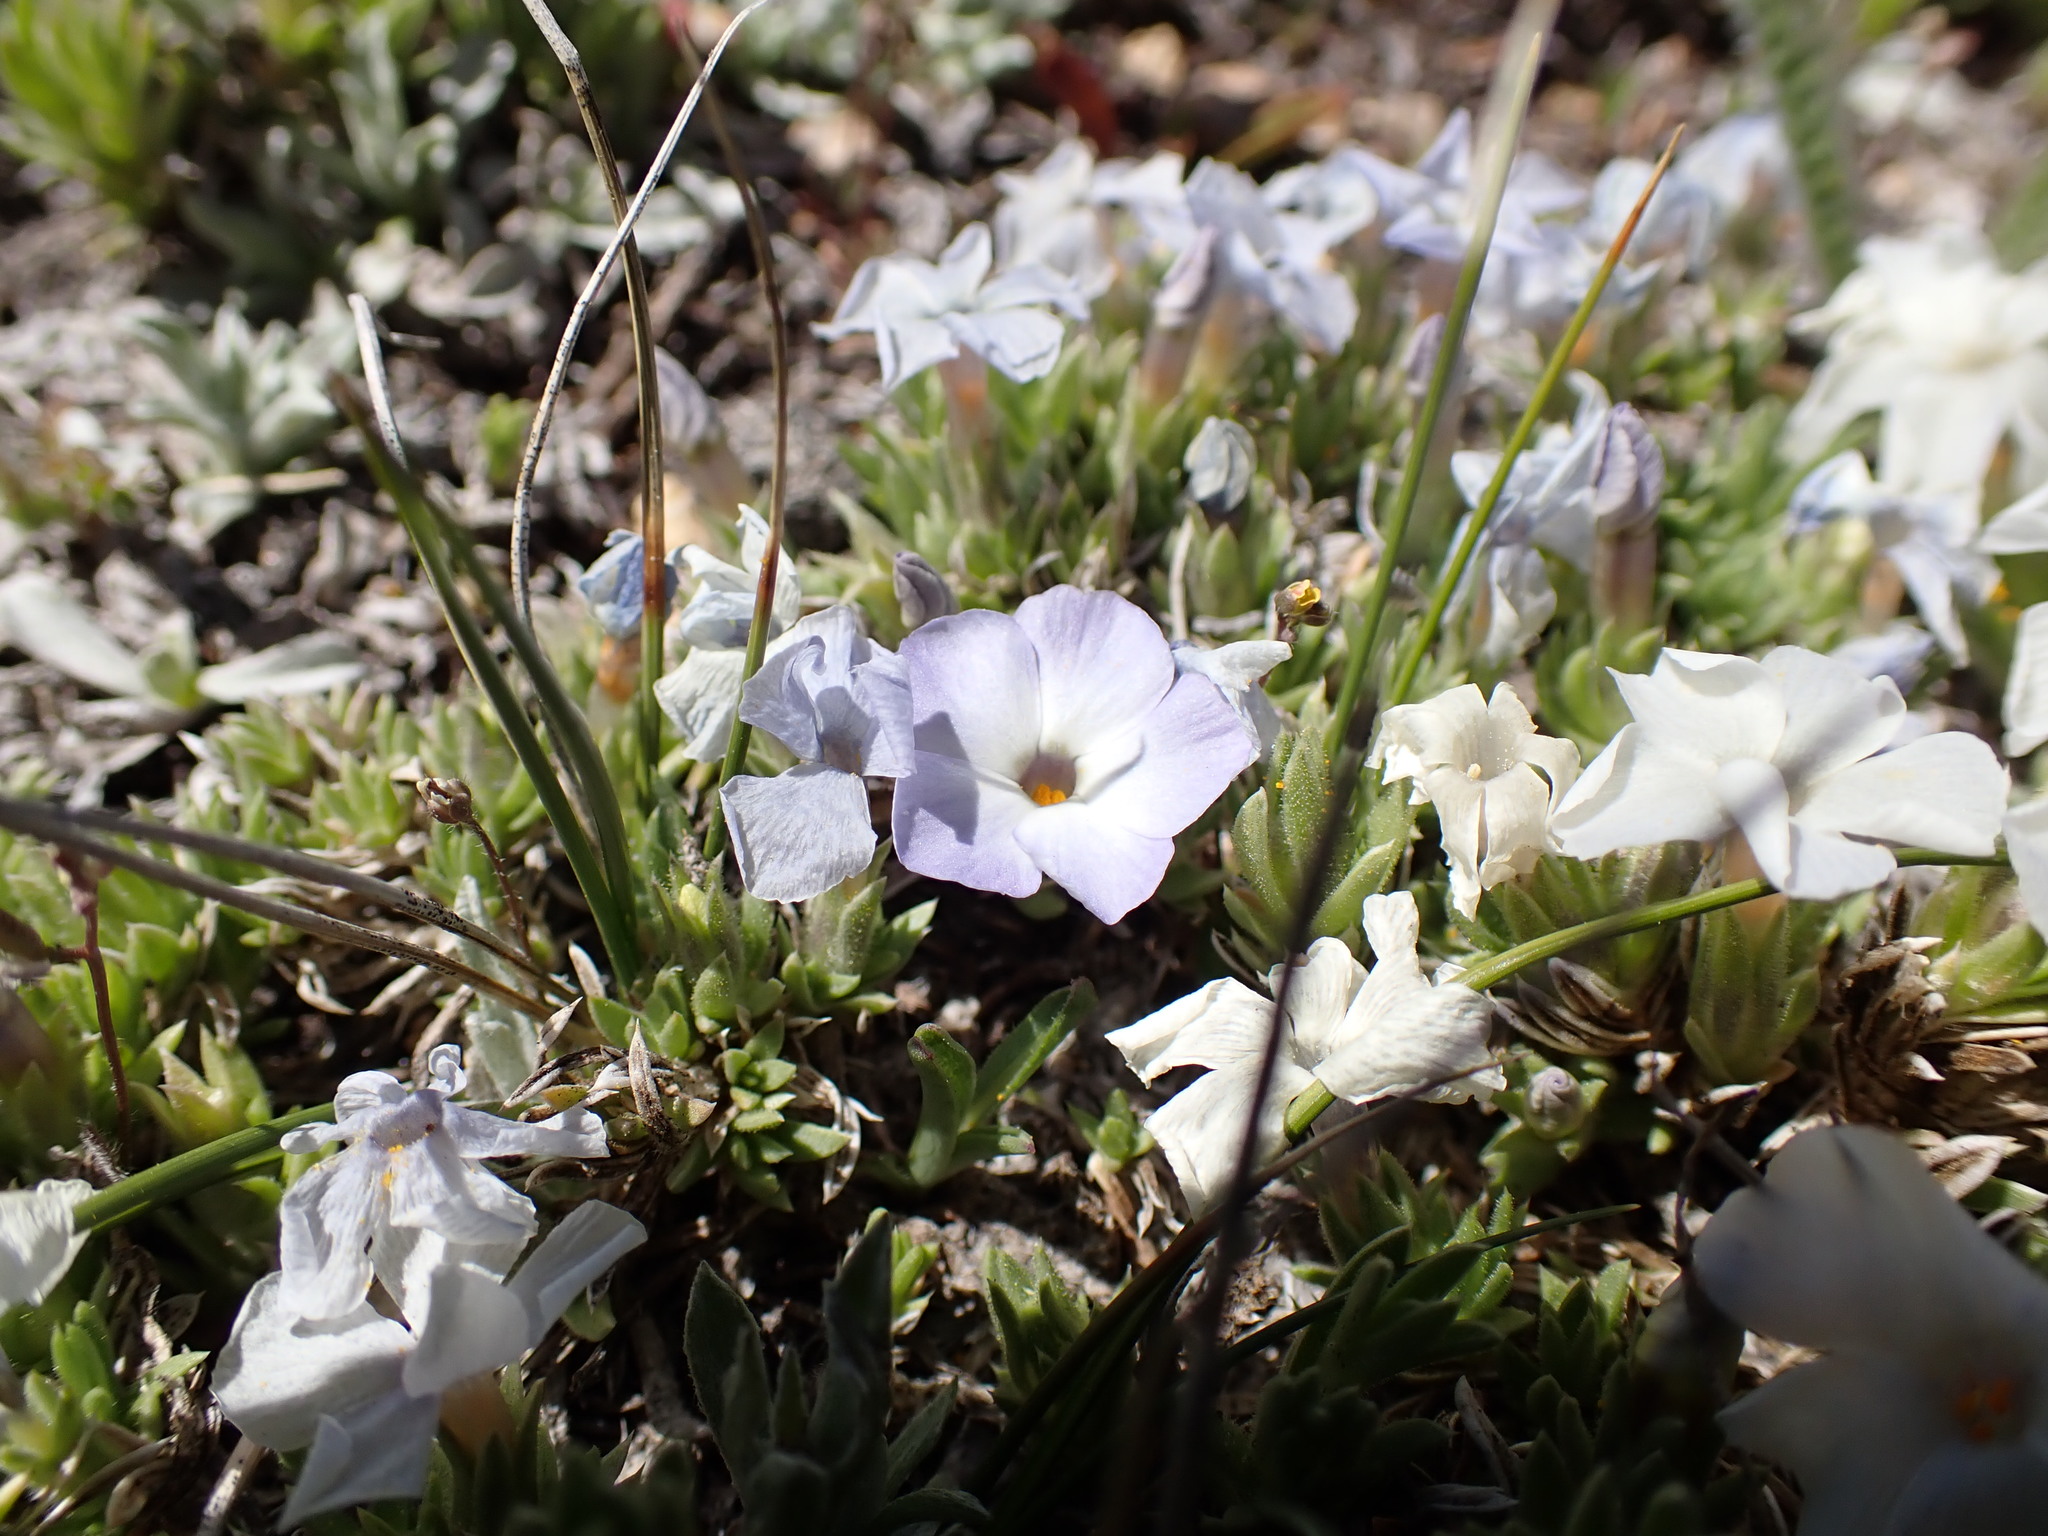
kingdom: Plantae
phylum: Tracheophyta
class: Magnoliopsida
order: Ericales
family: Polemoniaceae
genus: Phlox
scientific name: Phlox condensata
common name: Compact phlox
